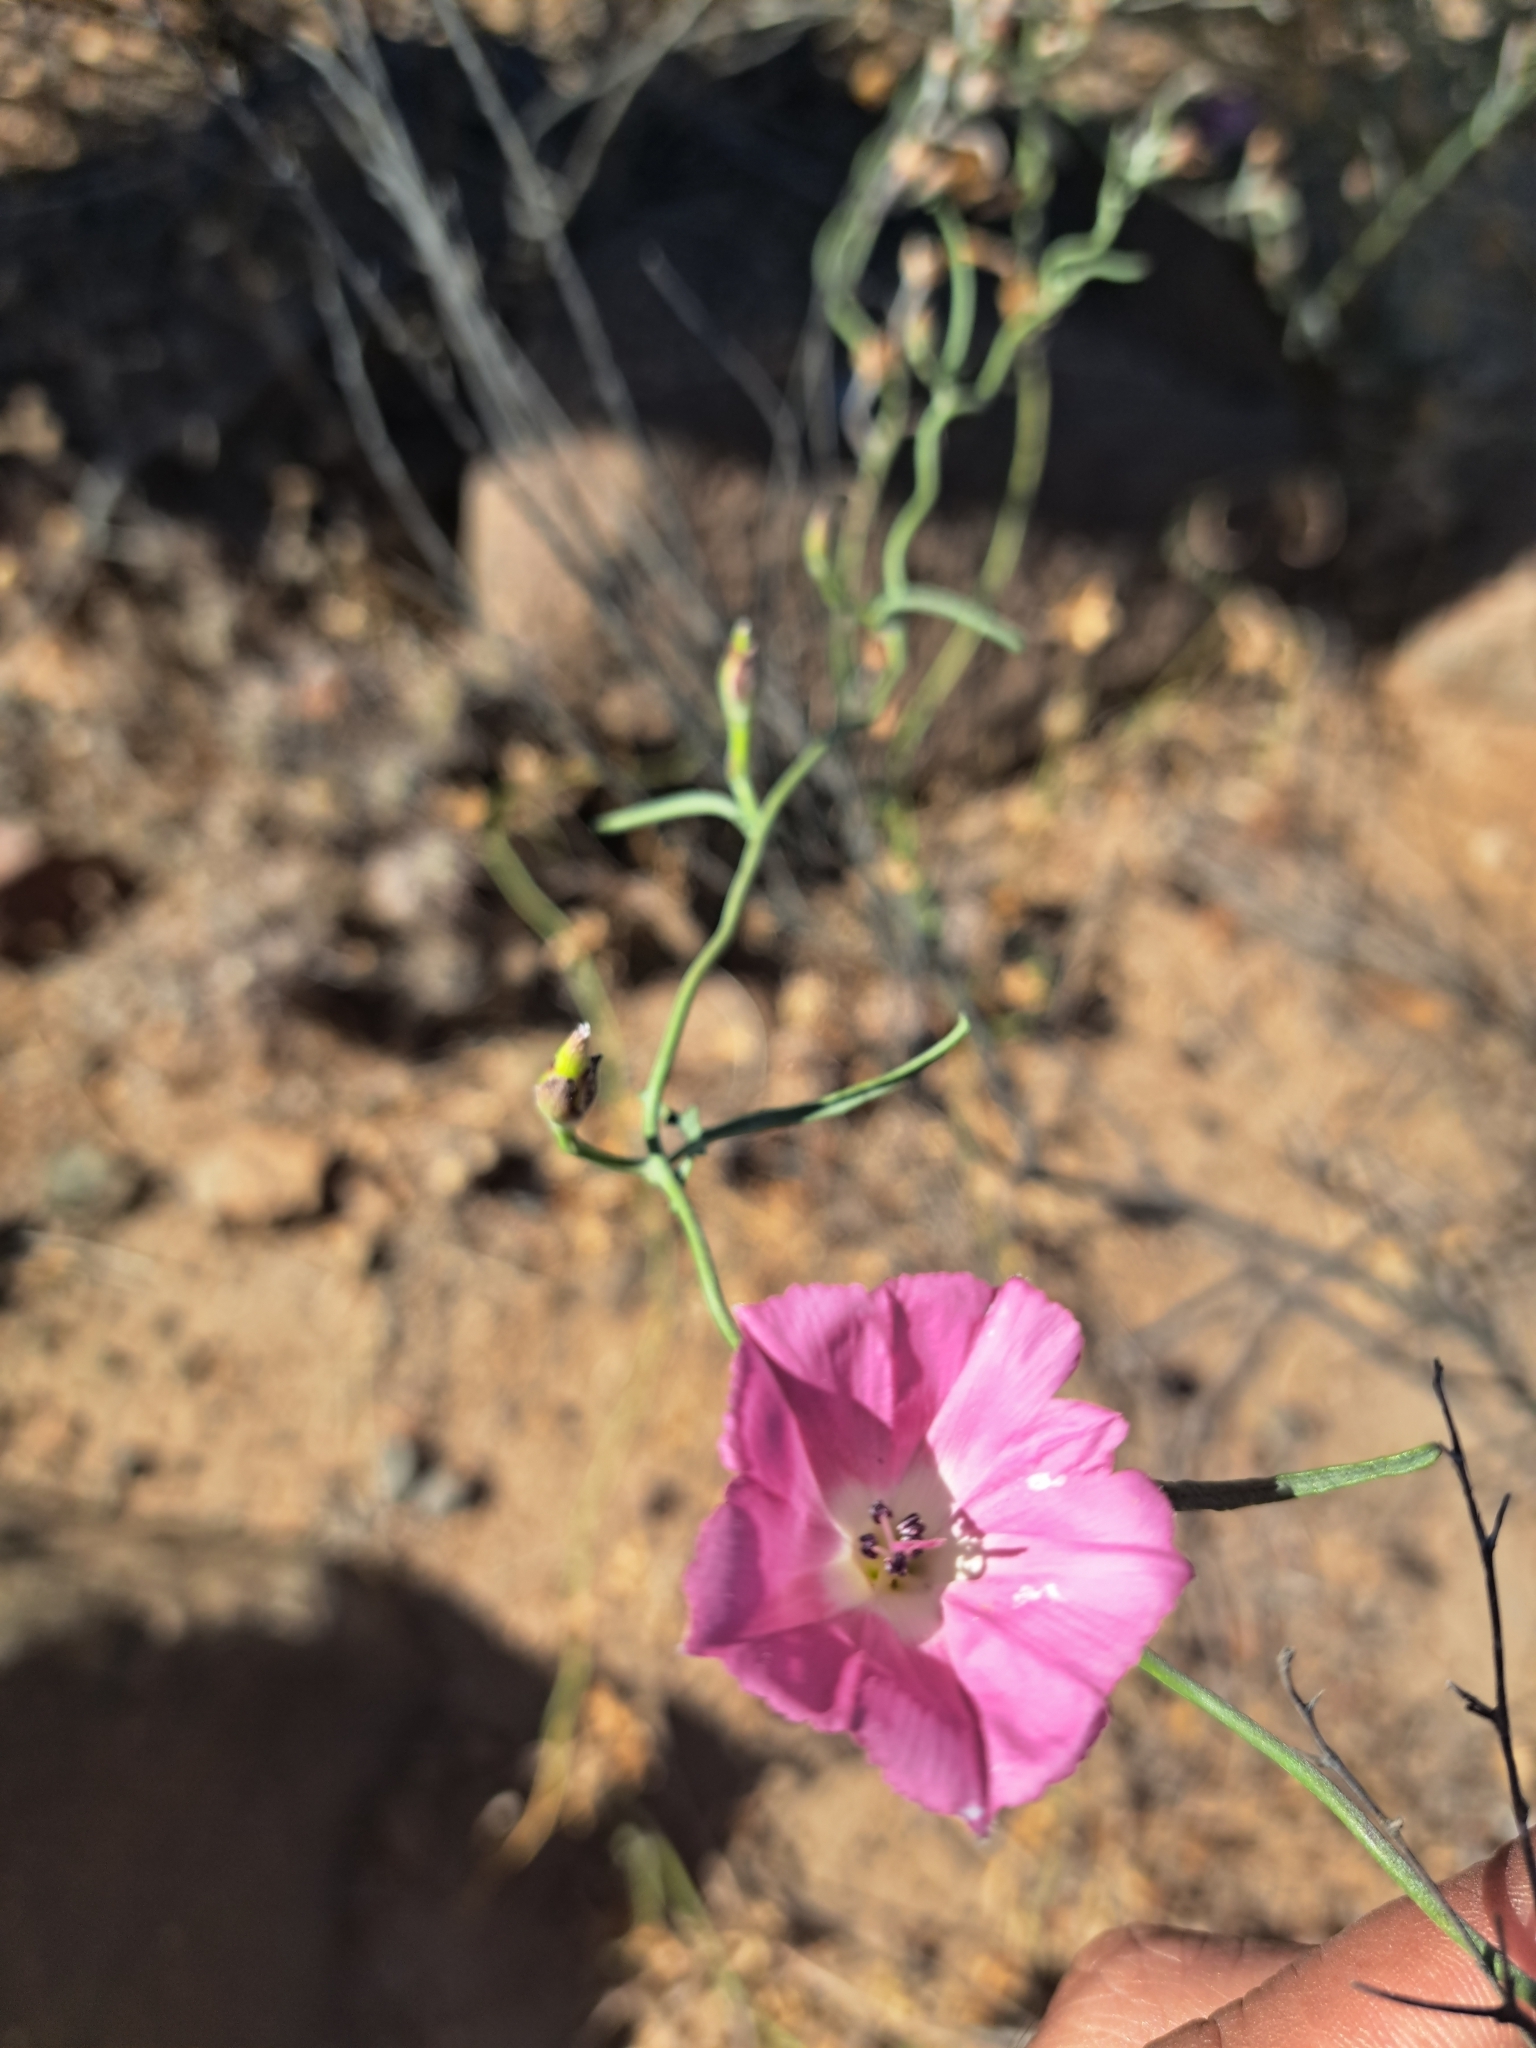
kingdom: Plantae
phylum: Tracheophyta
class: Magnoliopsida
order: Solanales
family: Convolvulaceae
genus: Convolvulus
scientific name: Convolvulus chilensis
